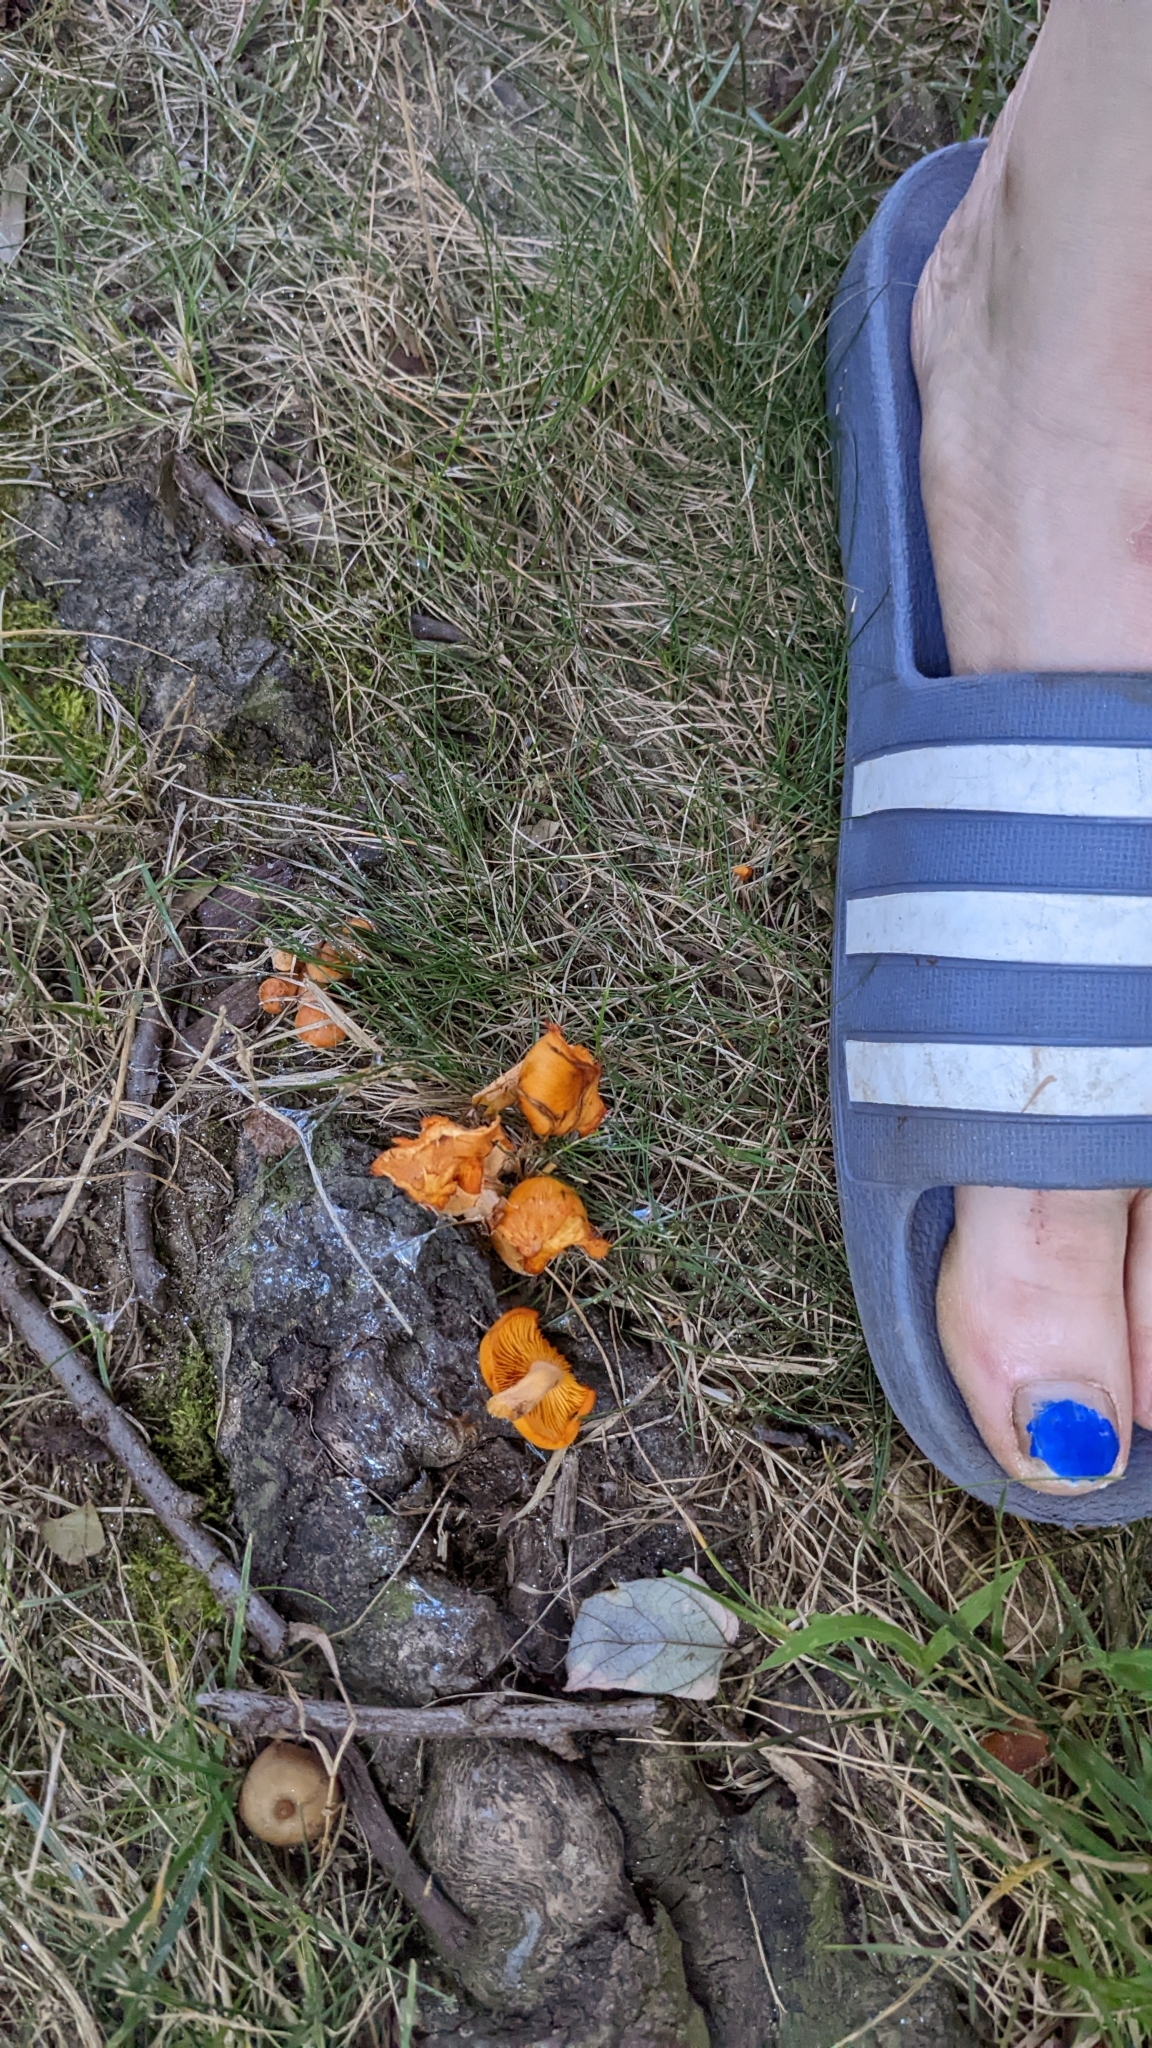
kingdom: Fungi
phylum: Basidiomycota
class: Agaricomycetes
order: Agaricales
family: Omphalotaceae
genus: Omphalotus
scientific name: Omphalotus illudens
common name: Jack o lantern
